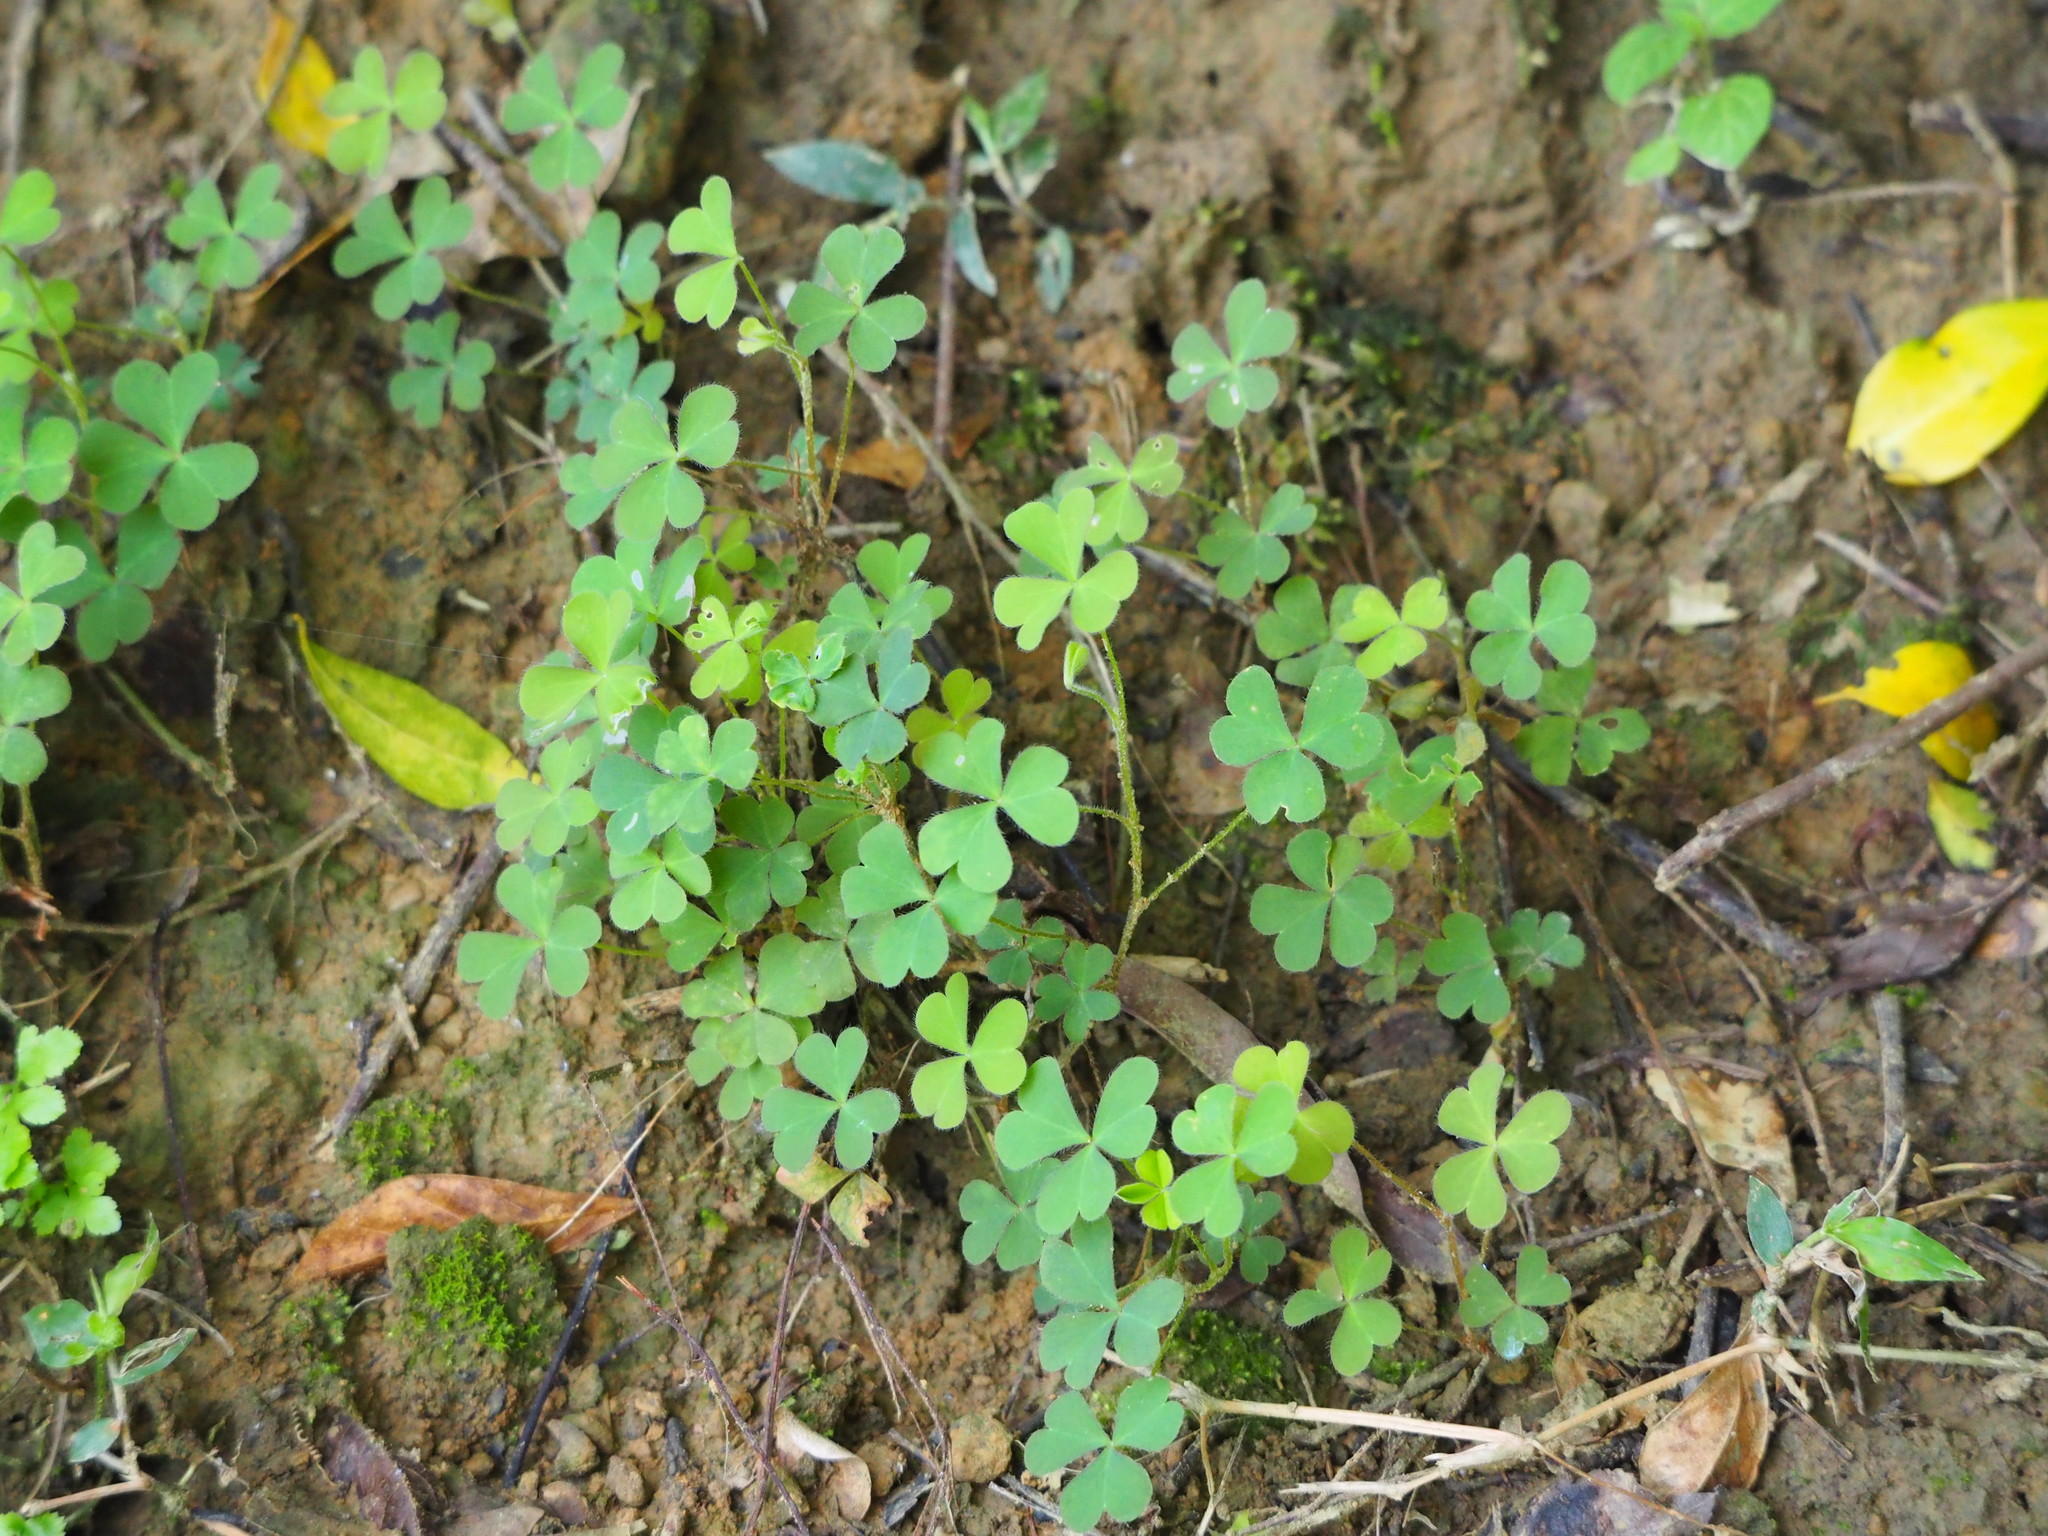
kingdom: Plantae
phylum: Tracheophyta
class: Magnoliopsida
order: Oxalidales
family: Oxalidaceae
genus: Oxalis
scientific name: Oxalis corniculata
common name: Procumbent yellow-sorrel
